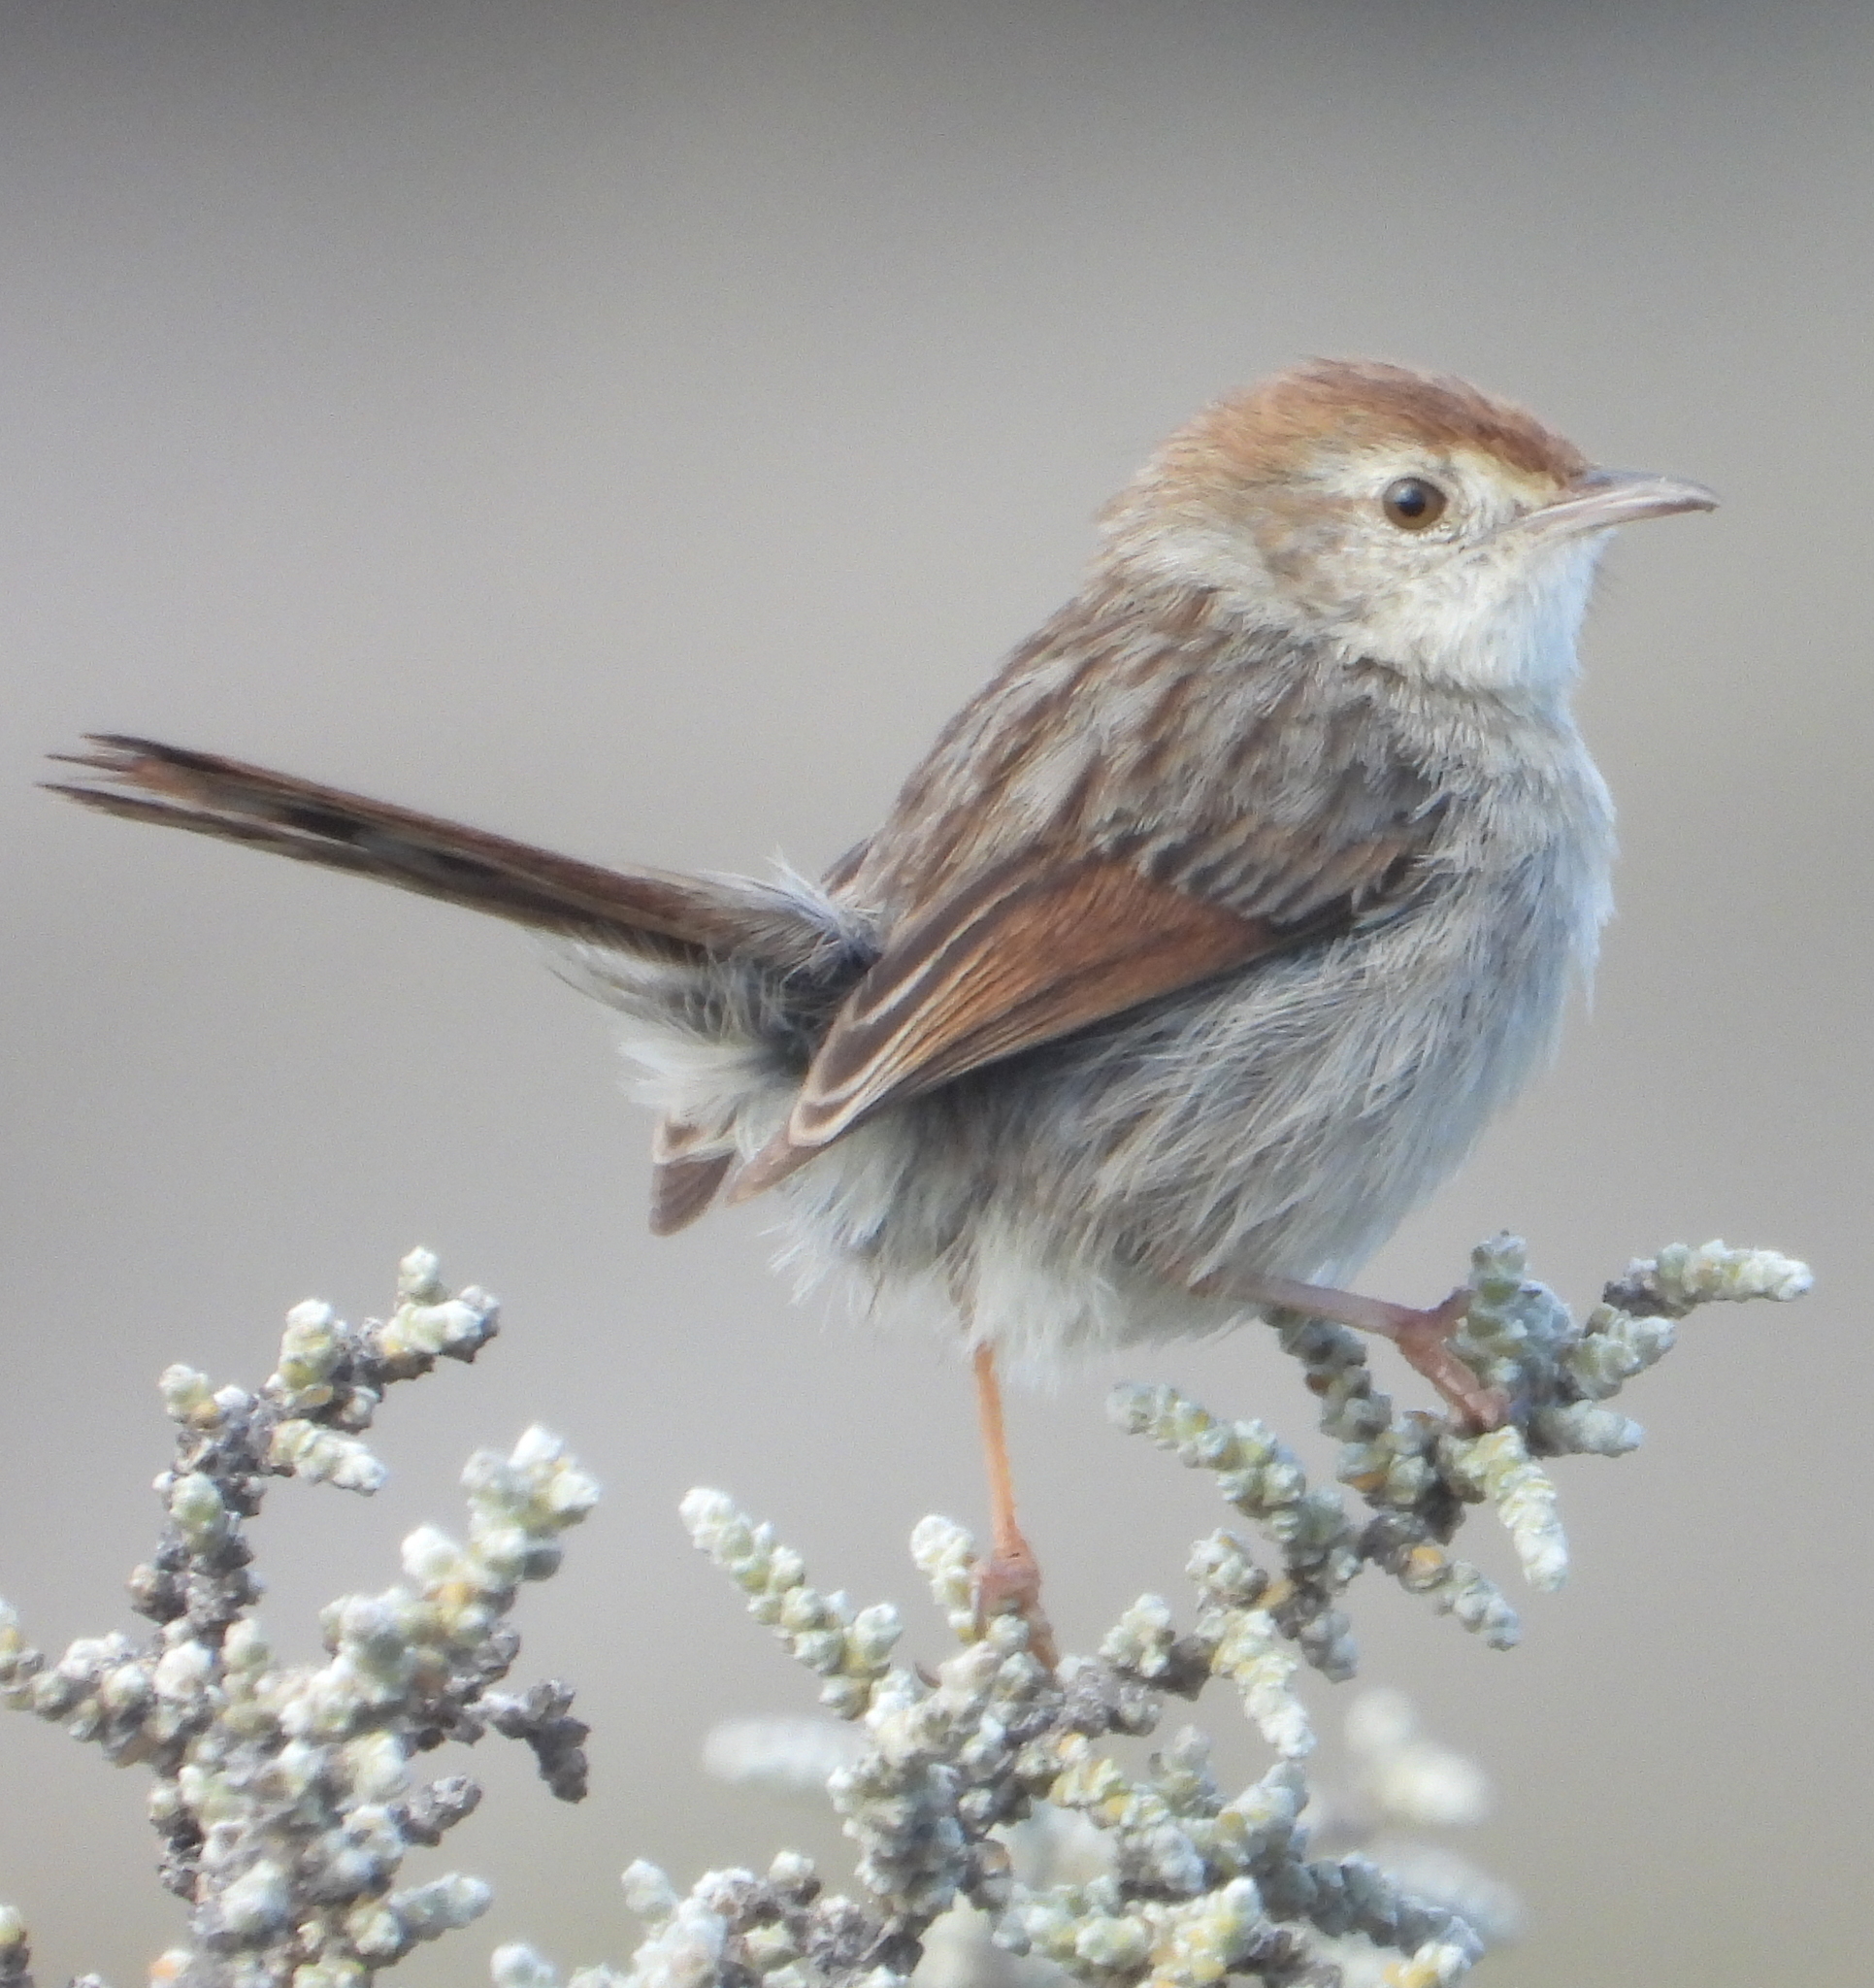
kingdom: Animalia
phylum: Chordata
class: Aves
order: Passeriformes
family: Cisticolidae
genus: Cisticola
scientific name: Cisticola subruficapilla
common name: Grey-backed cisticola
